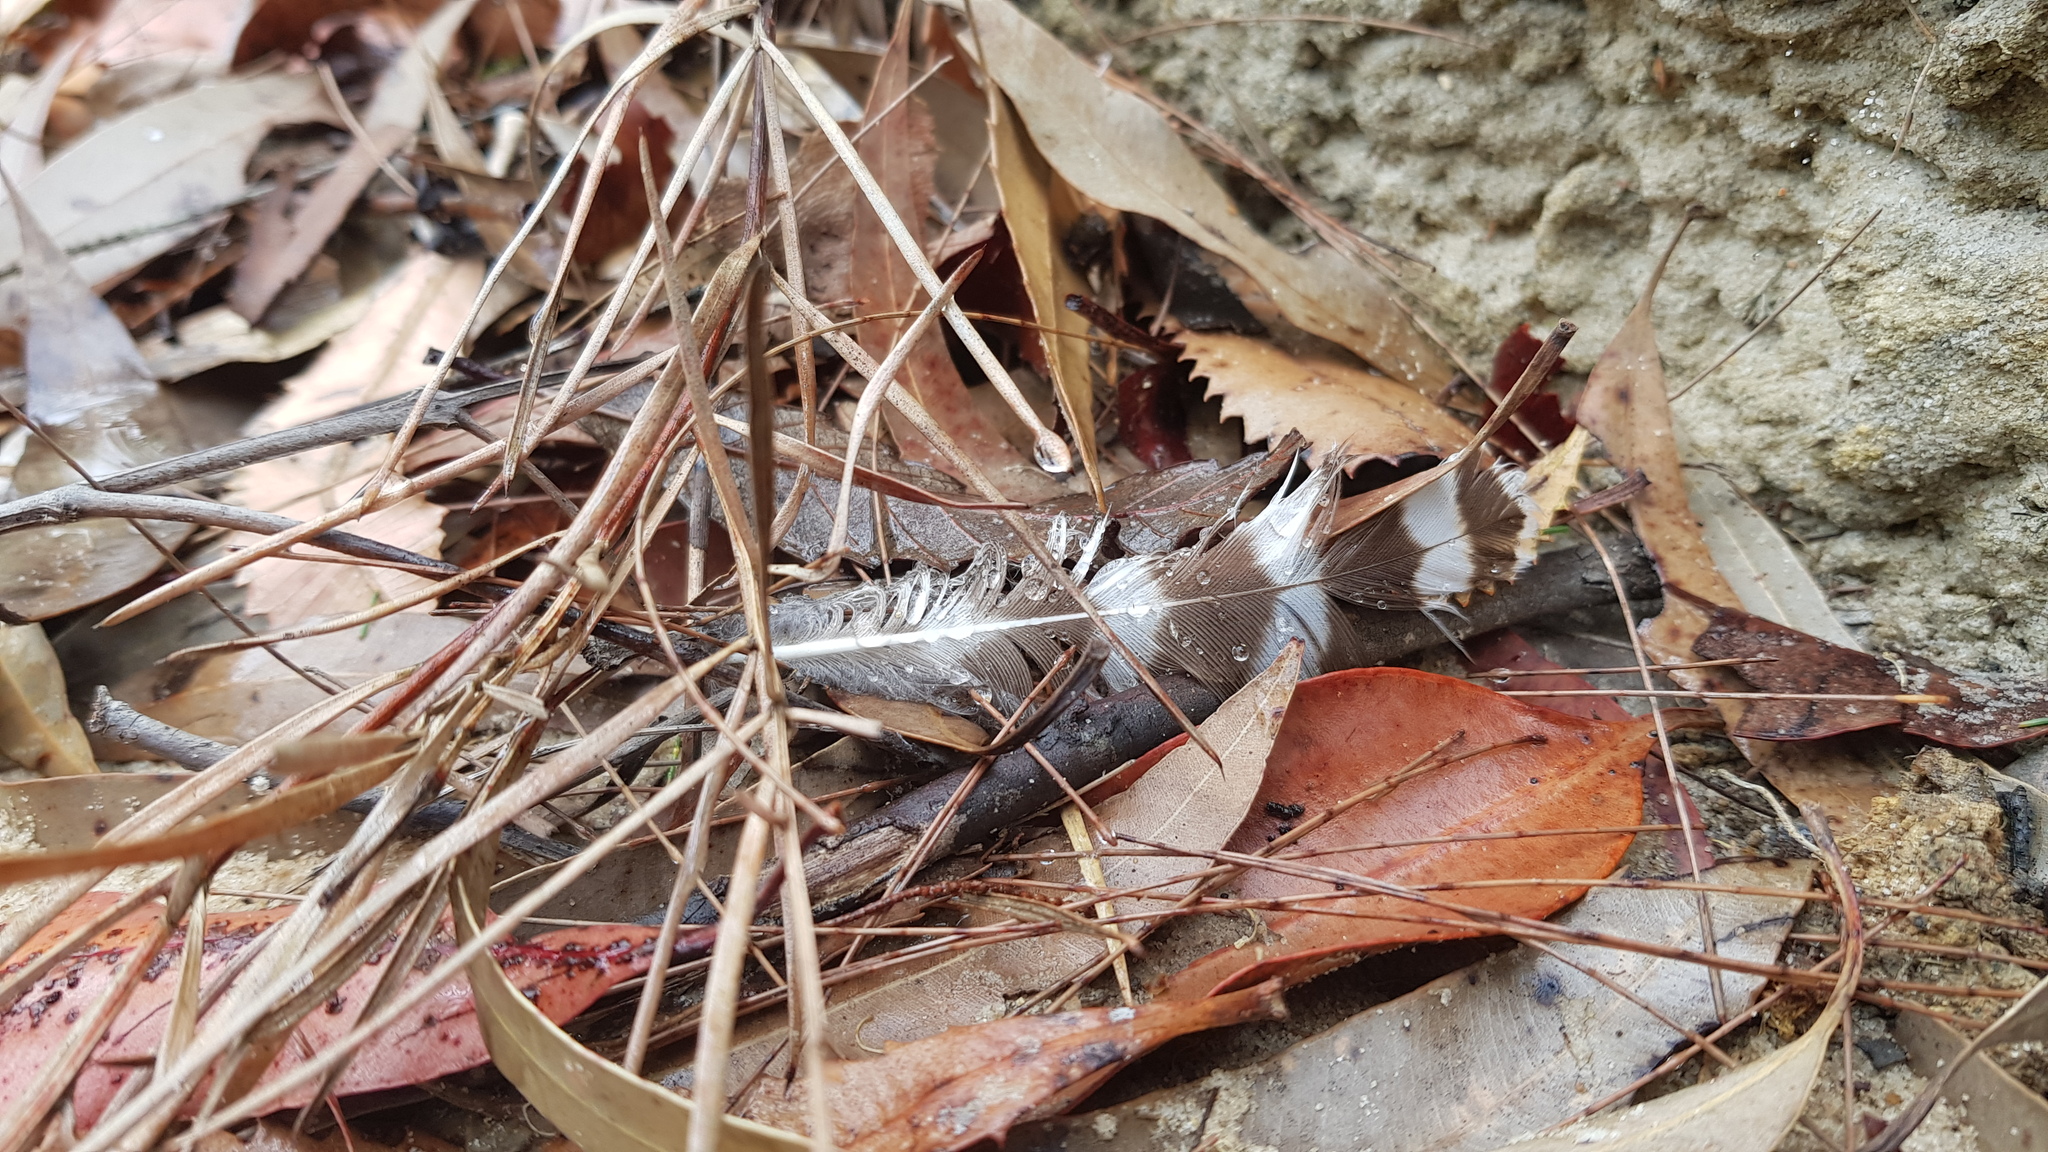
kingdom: Animalia
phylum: Chordata
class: Aves
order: Strigiformes
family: Strigidae
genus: Ninox
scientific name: Ninox strenua
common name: Powerful owl
